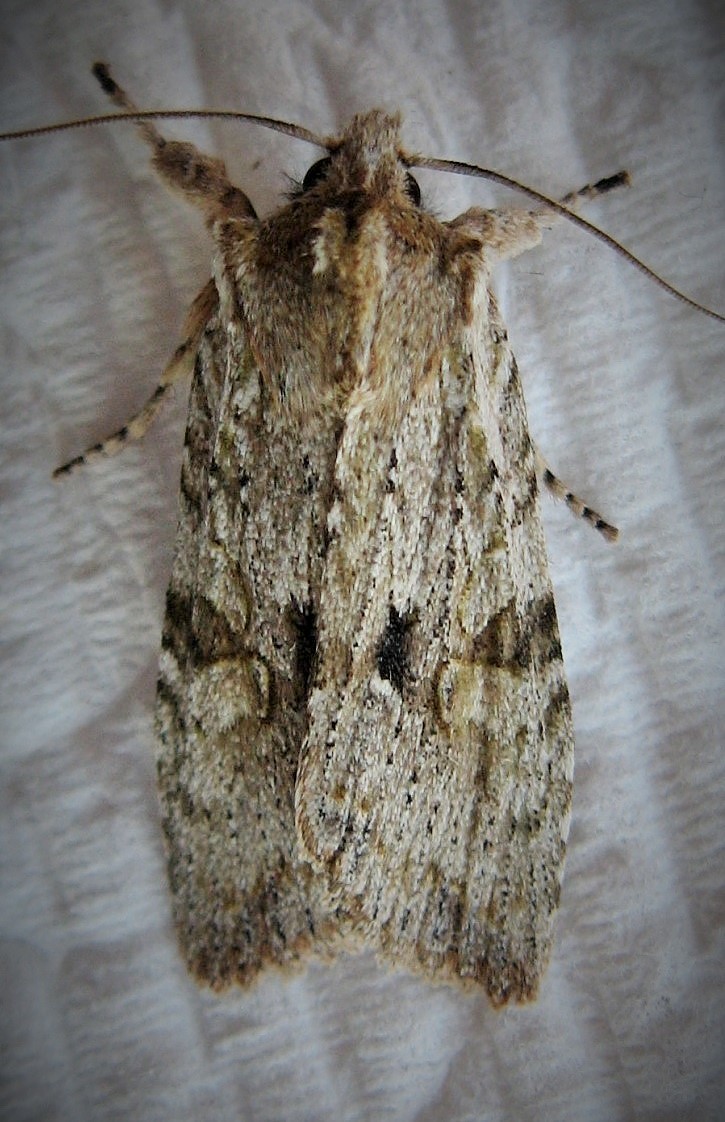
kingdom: Animalia
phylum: Arthropoda
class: Insecta
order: Lepidoptera
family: Noctuidae
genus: Lithophane
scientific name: Lithophane patefacta
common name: Dimorphic pinion moth
